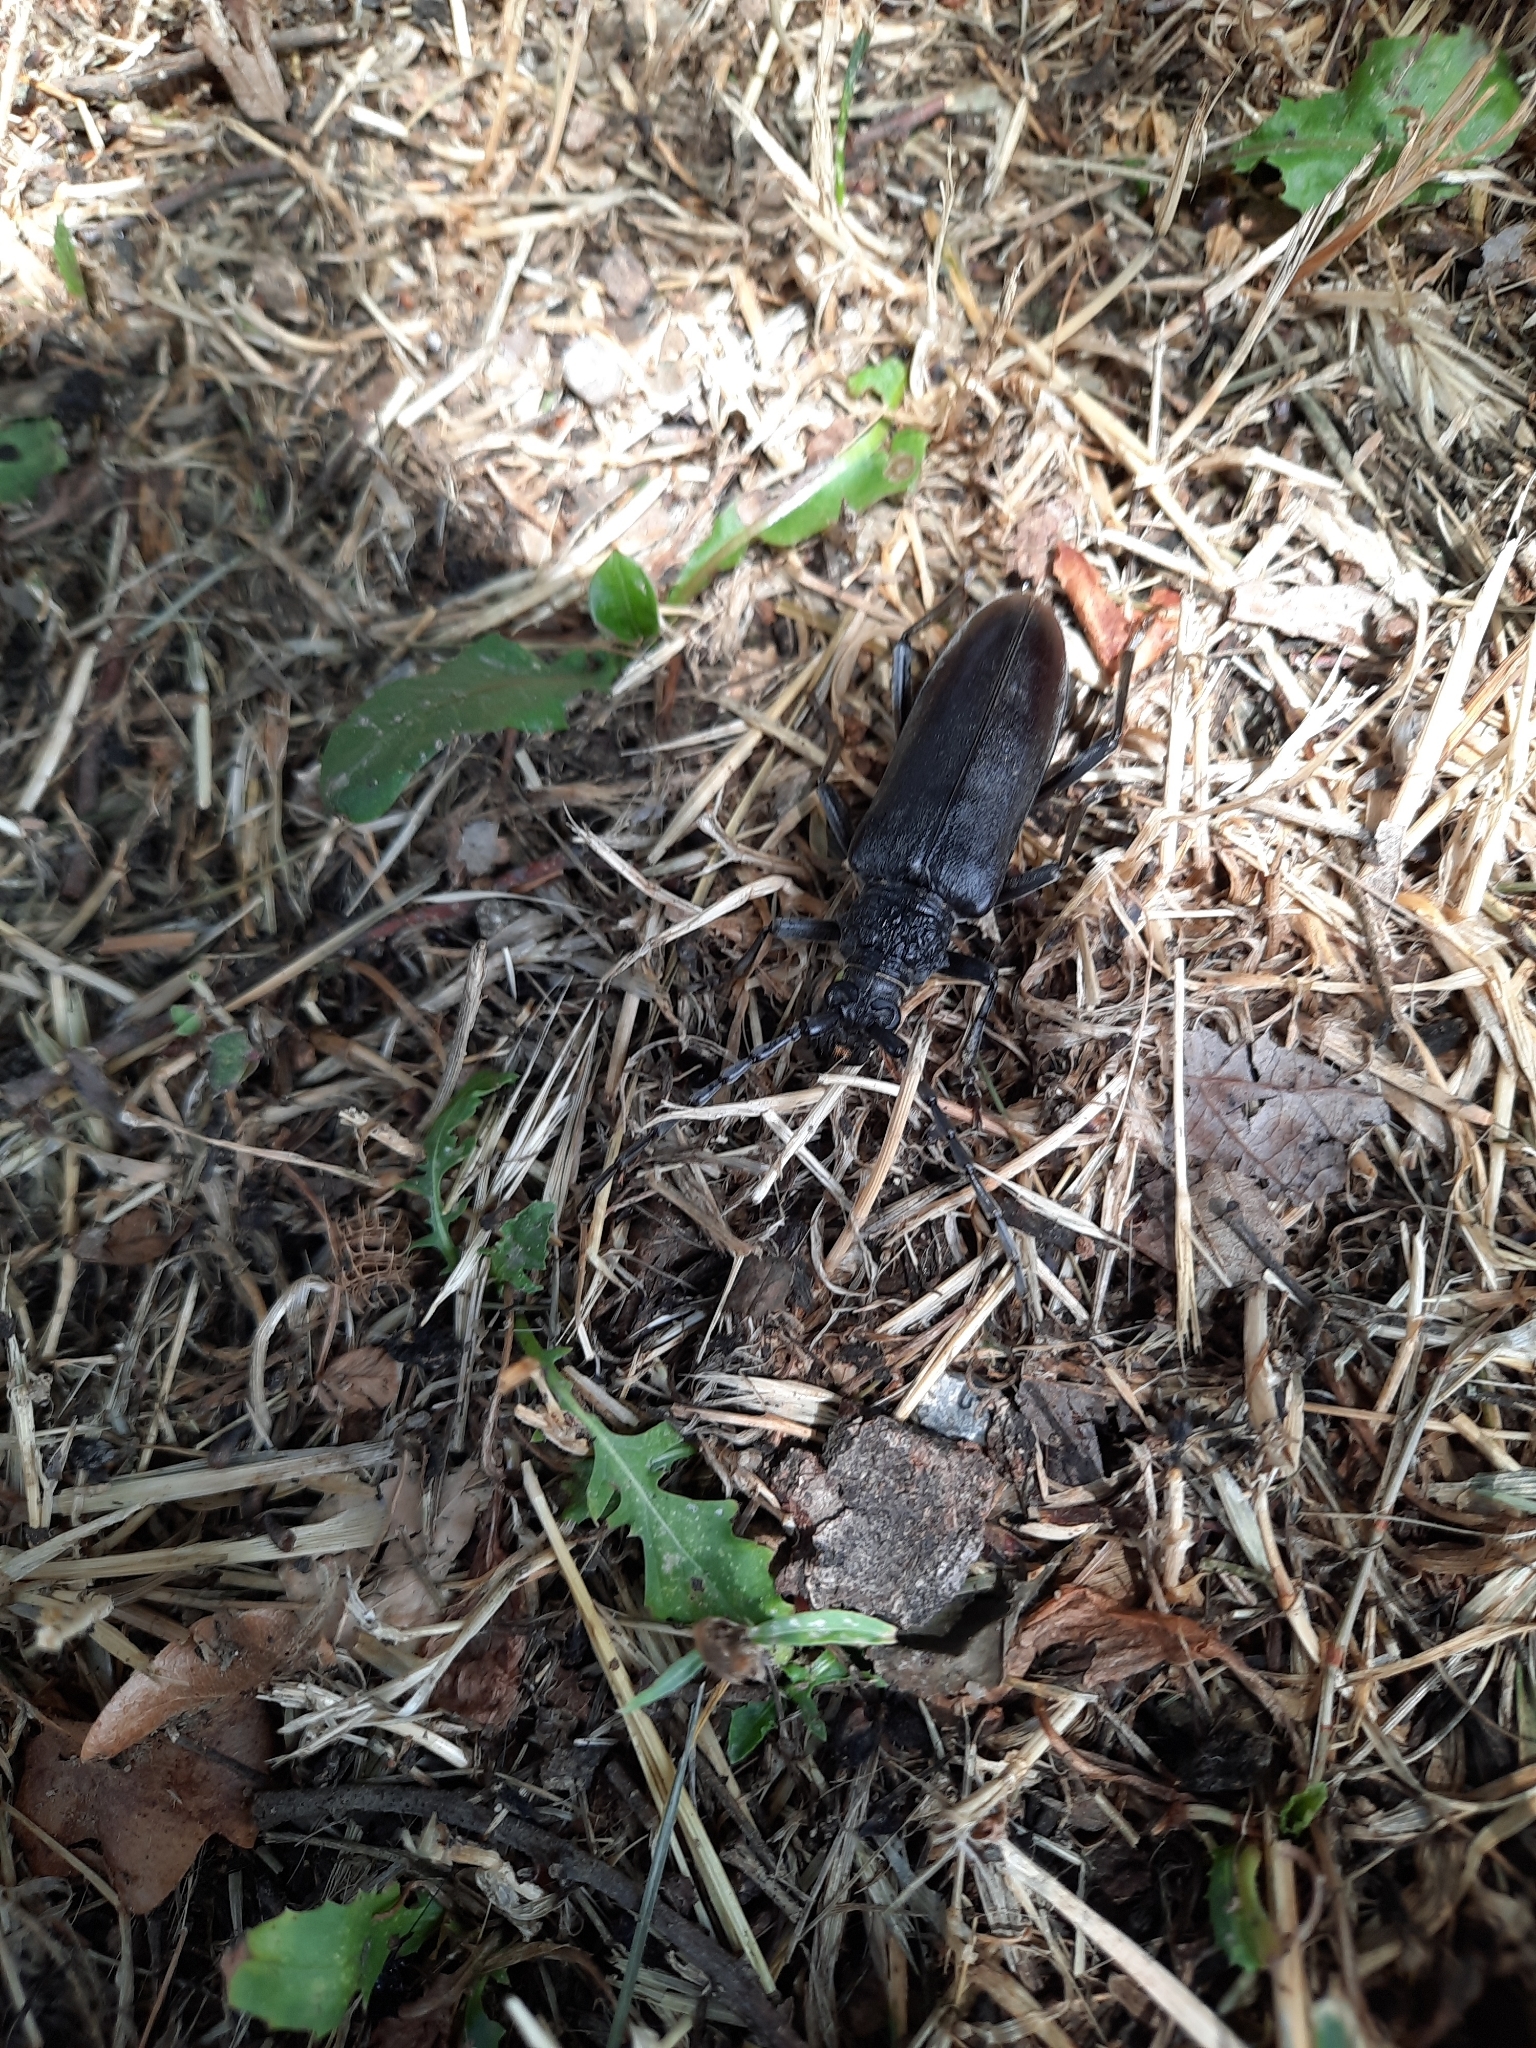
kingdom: Animalia
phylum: Arthropoda
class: Insecta
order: Coleoptera
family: Cerambycidae
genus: Cerambyx
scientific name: Cerambyx welensii
